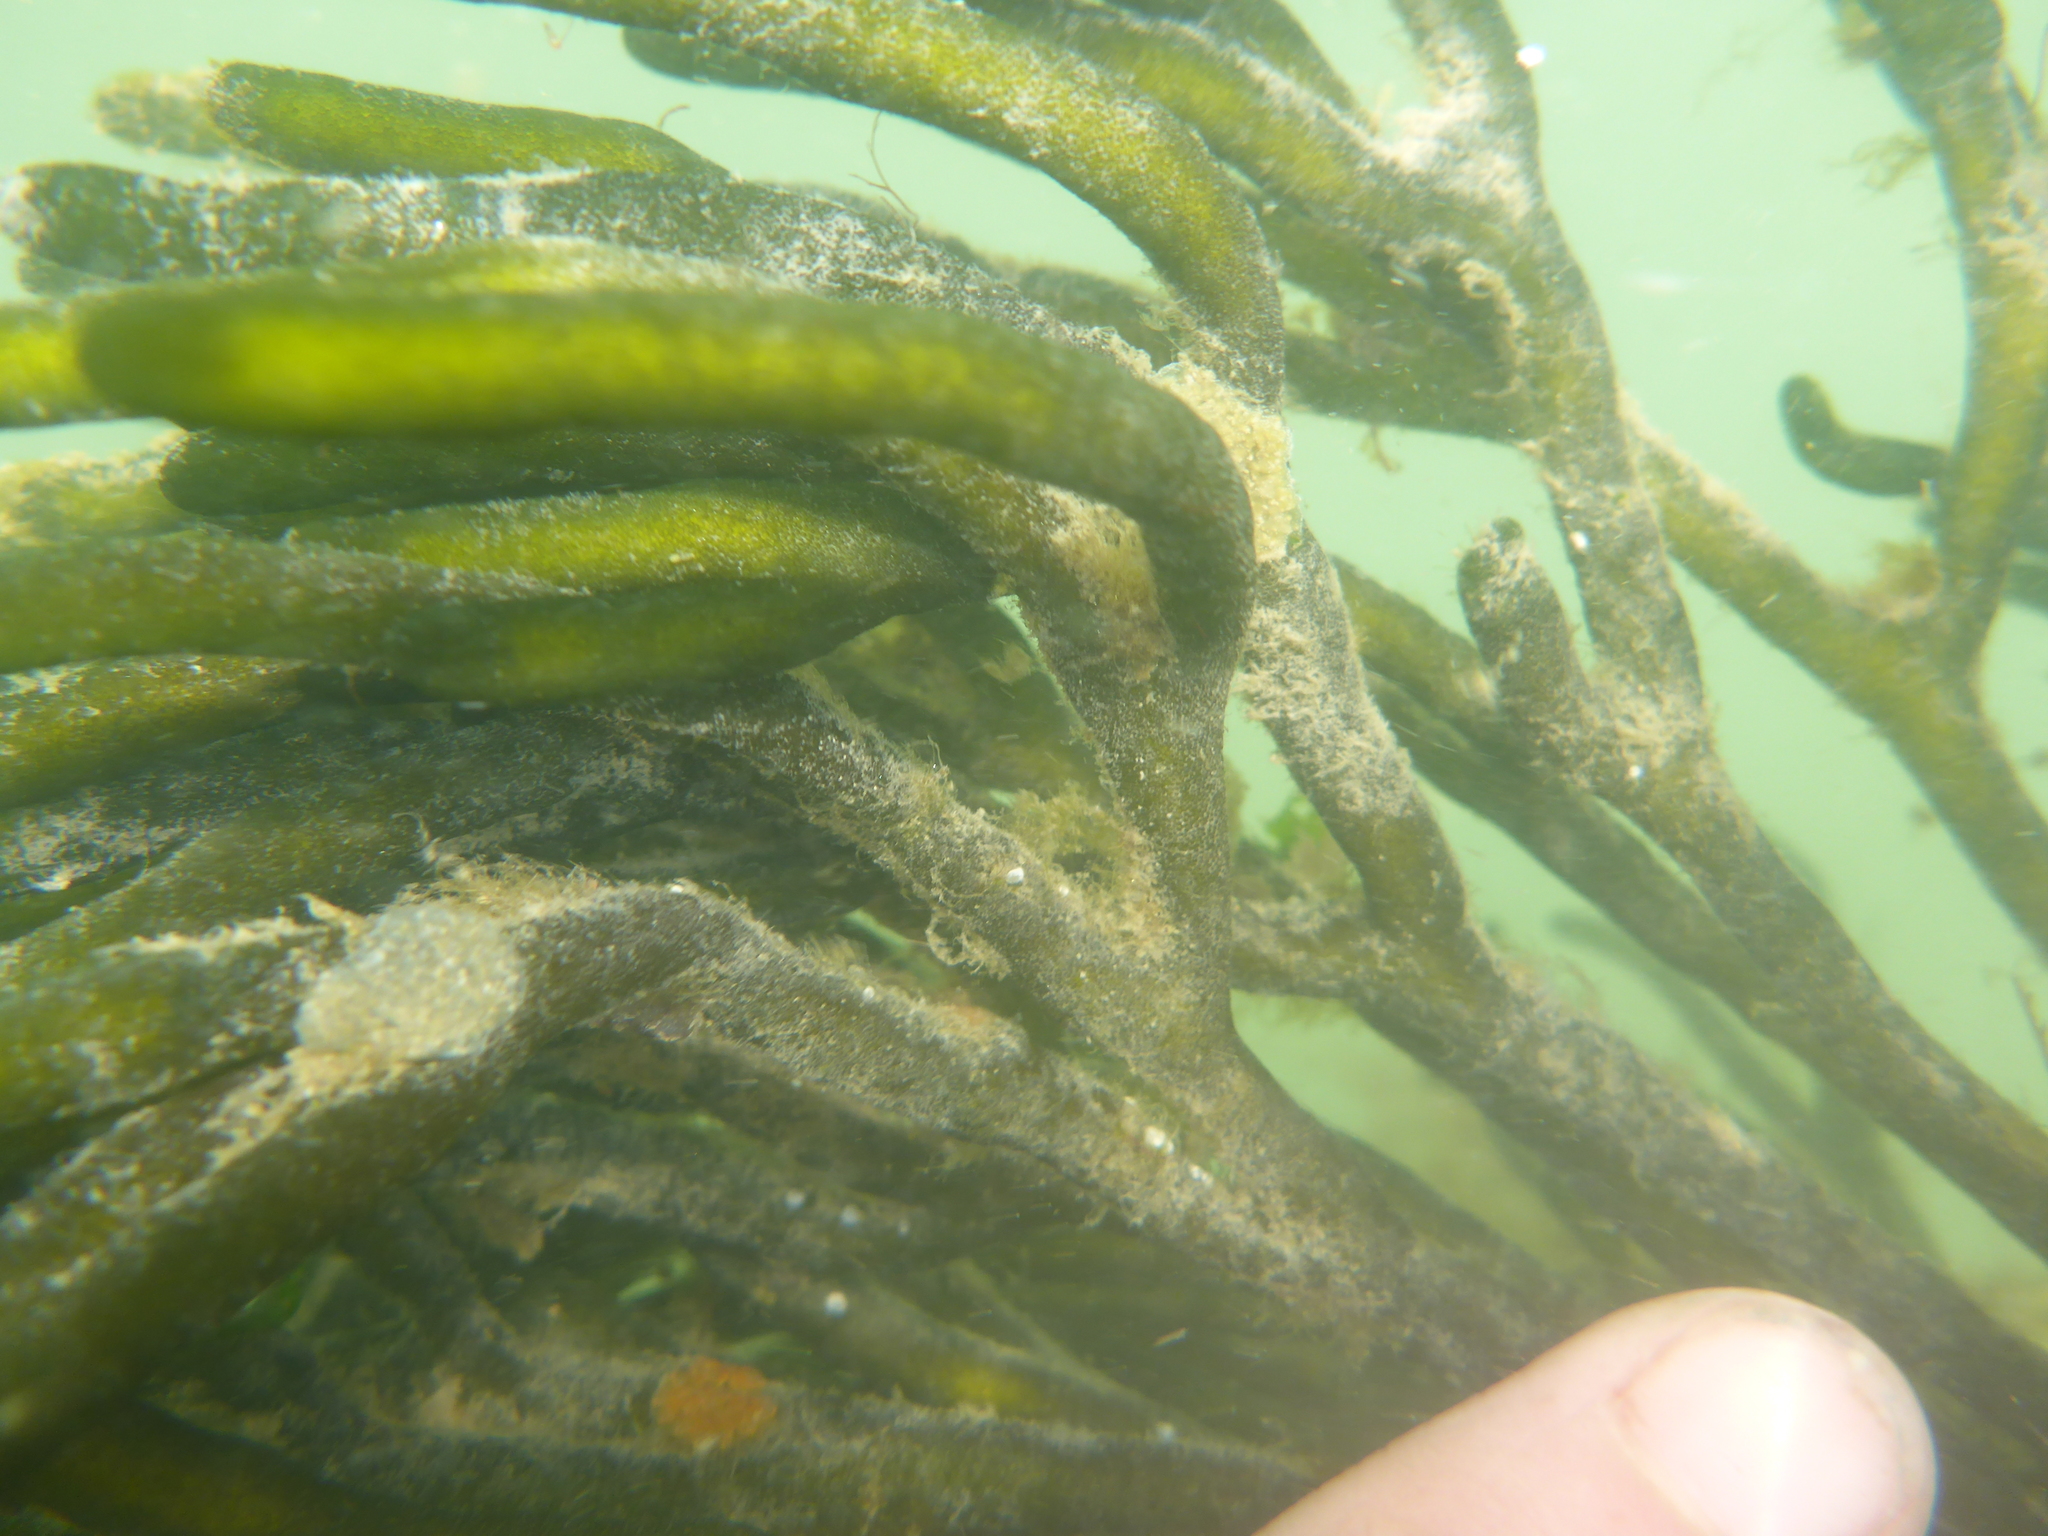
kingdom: Plantae
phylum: Chlorophyta
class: Ulvophyceae
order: Bryopsidales
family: Codiaceae
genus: Codium
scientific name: Codium fragile
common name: Dead man's fingers
